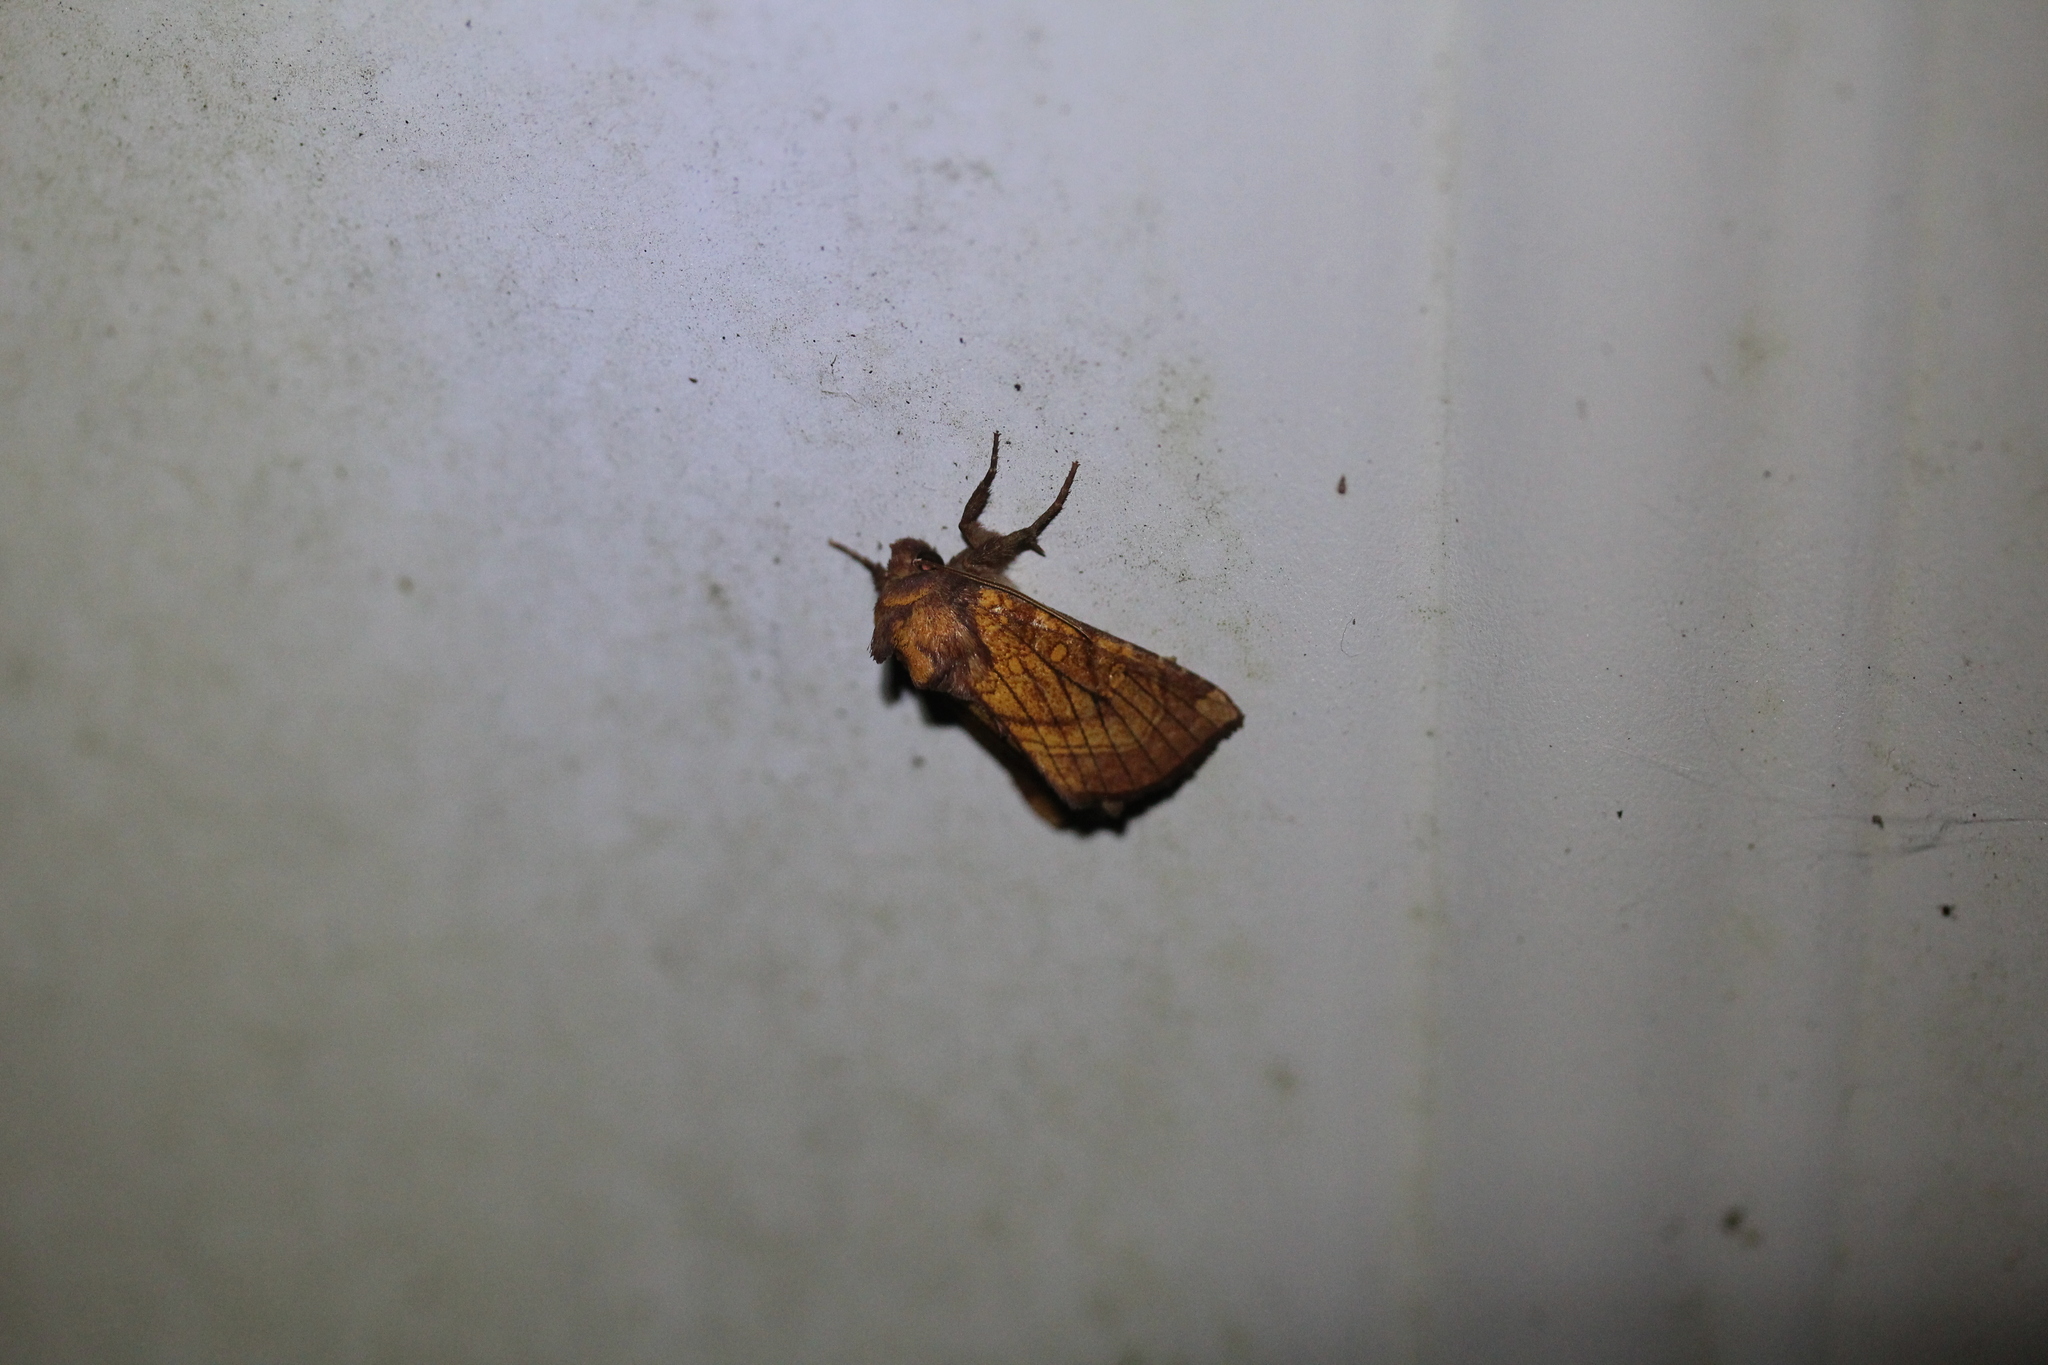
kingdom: Animalia
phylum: Arthropoda
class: Insecta
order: Lepidoptera
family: Noctuidae
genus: Papaipema
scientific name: Papaipema inquaesita
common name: Sensitive fern borer moth
